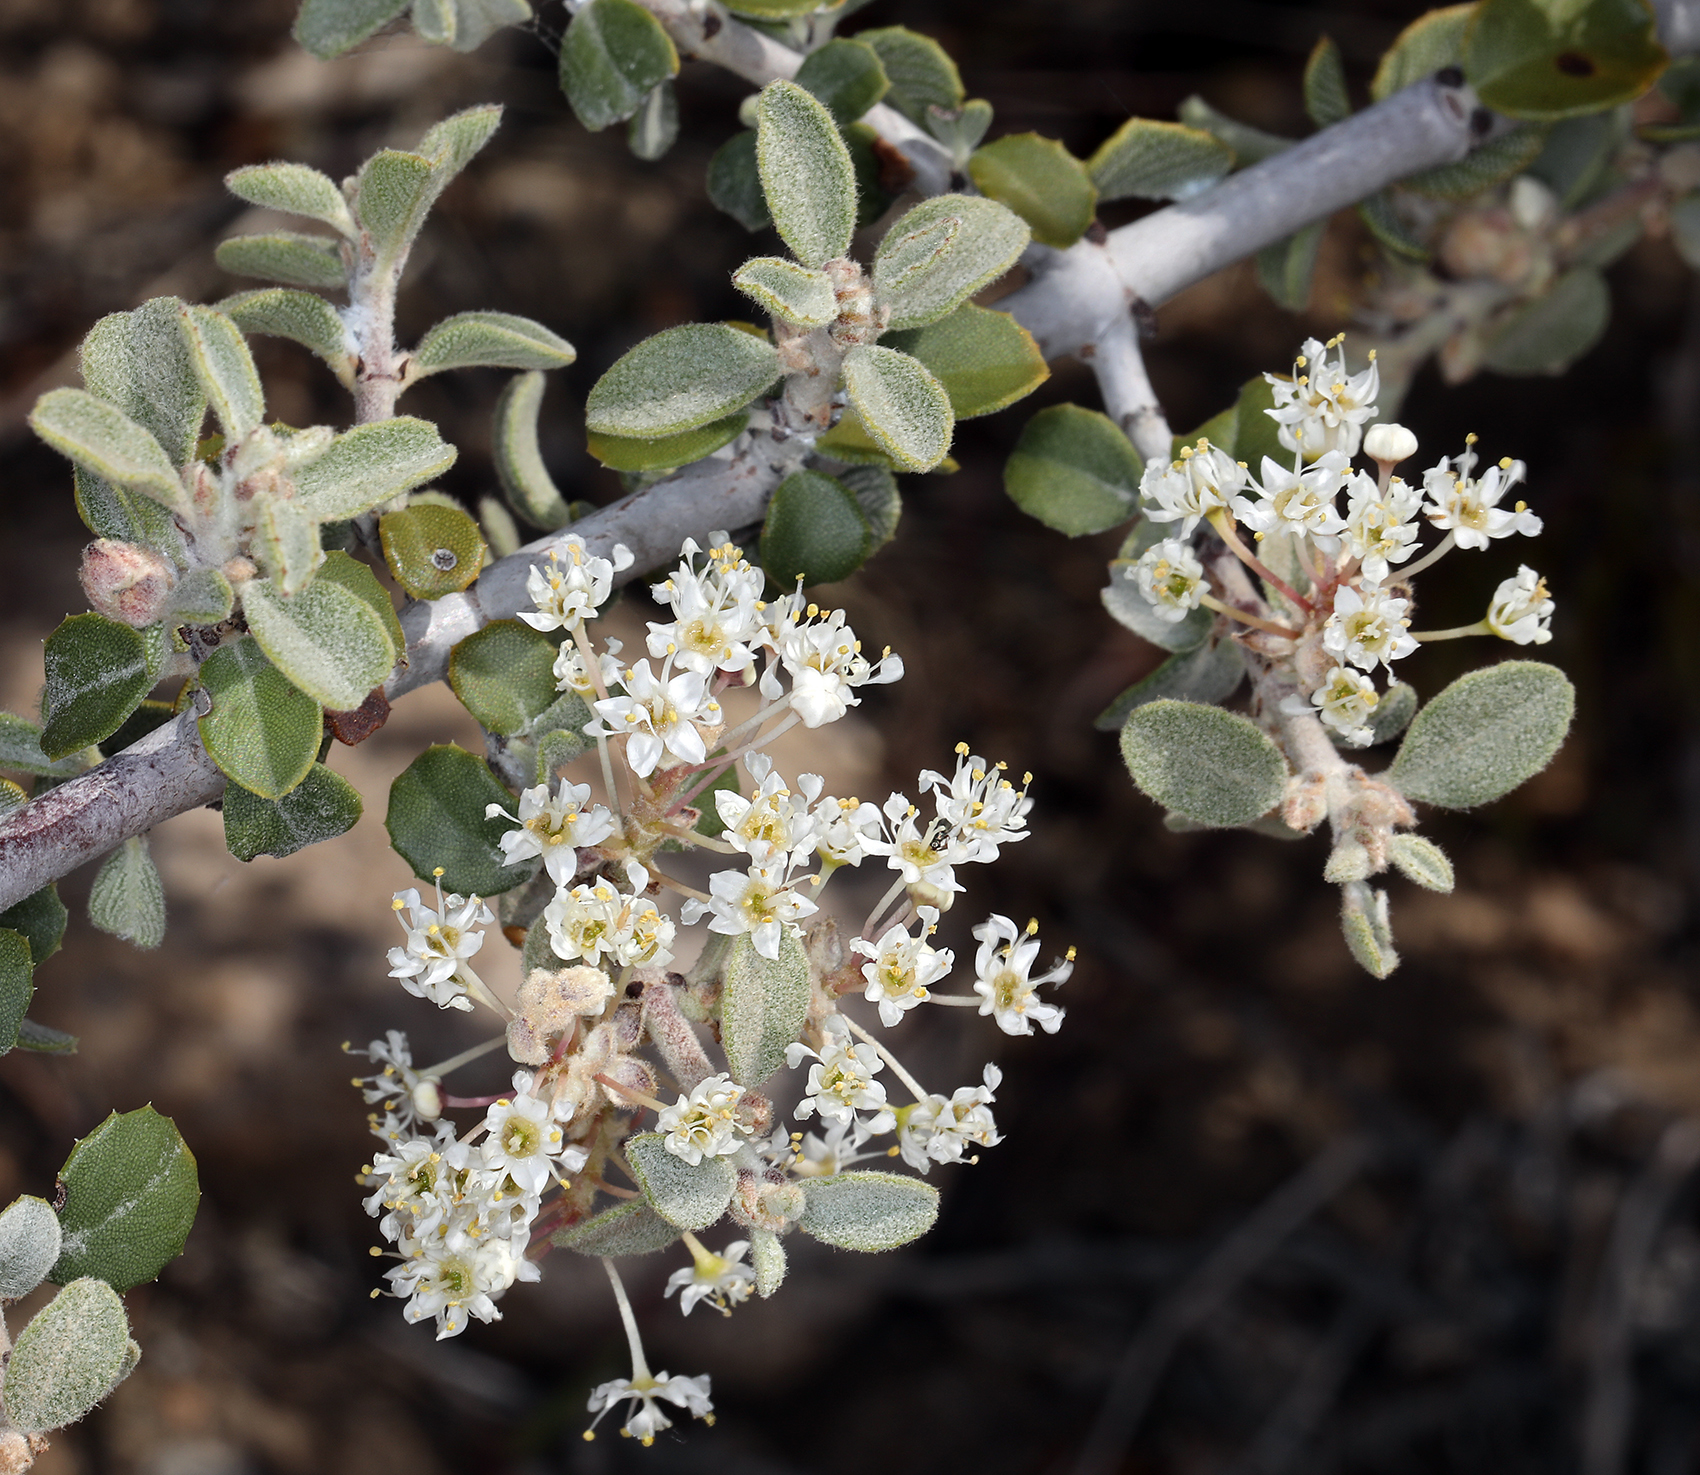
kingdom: Plantae
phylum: Tracheophyta
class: Magnoliopsida
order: Rosales
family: Rhamnaceae
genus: Ceanothus
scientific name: Ceanothus pauciflorus
